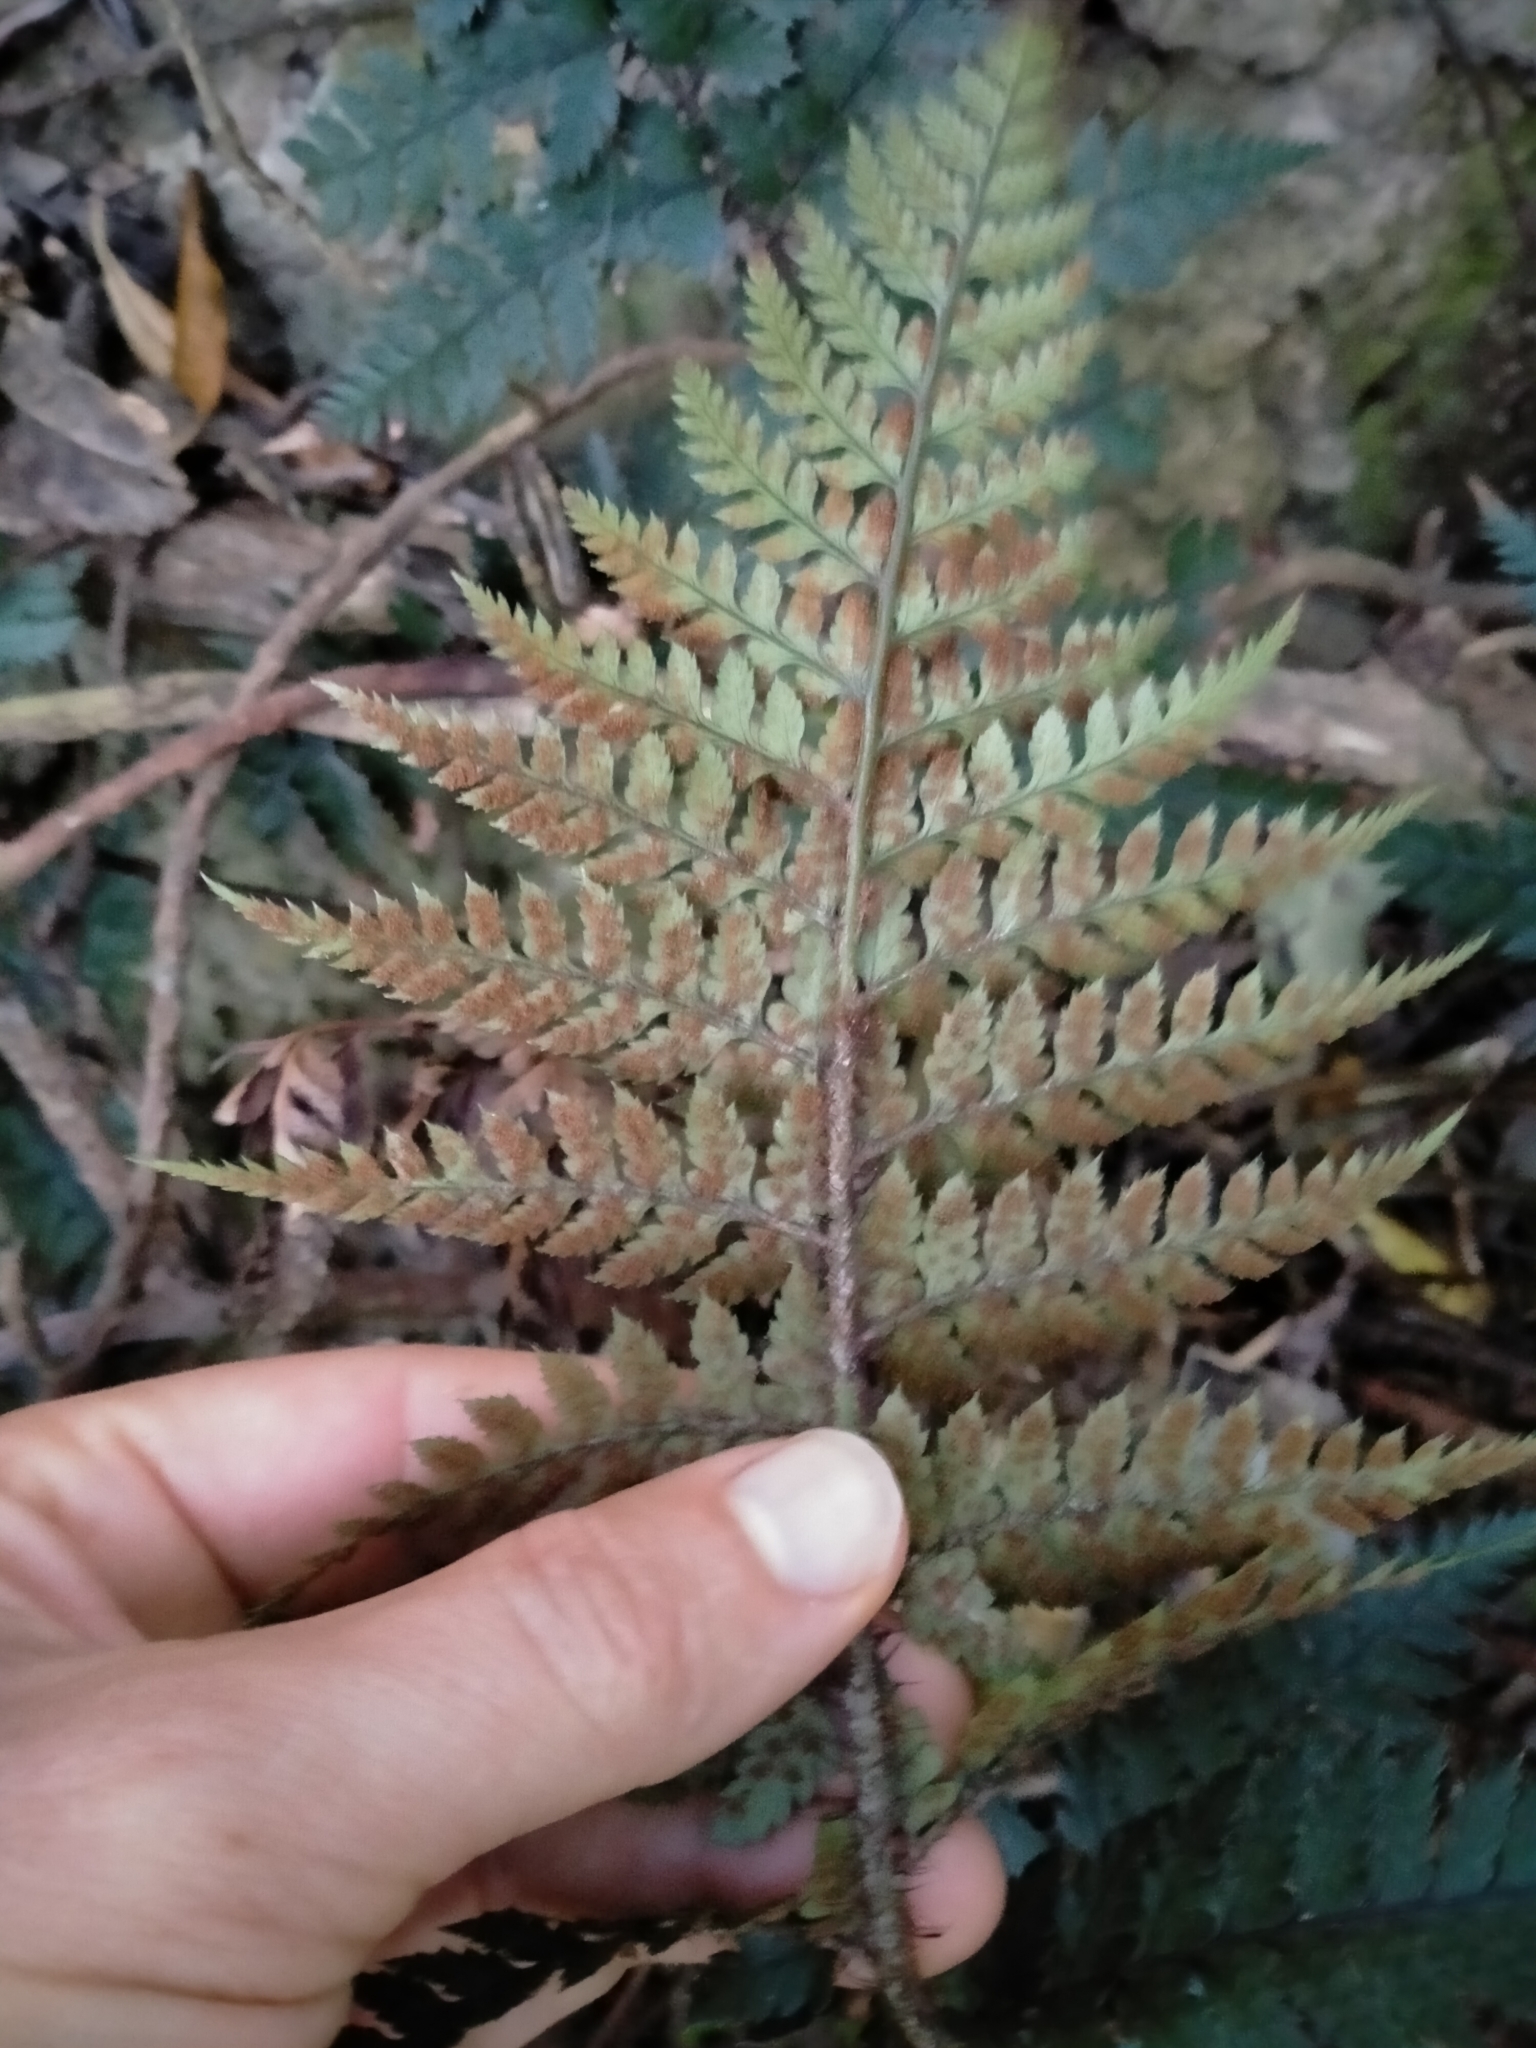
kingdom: Plantae
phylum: Tracheophyta
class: Polypodiopsida
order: Polypodiales
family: Dryopteridaceae
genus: Polystichum
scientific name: Polystichum neozelandicum
